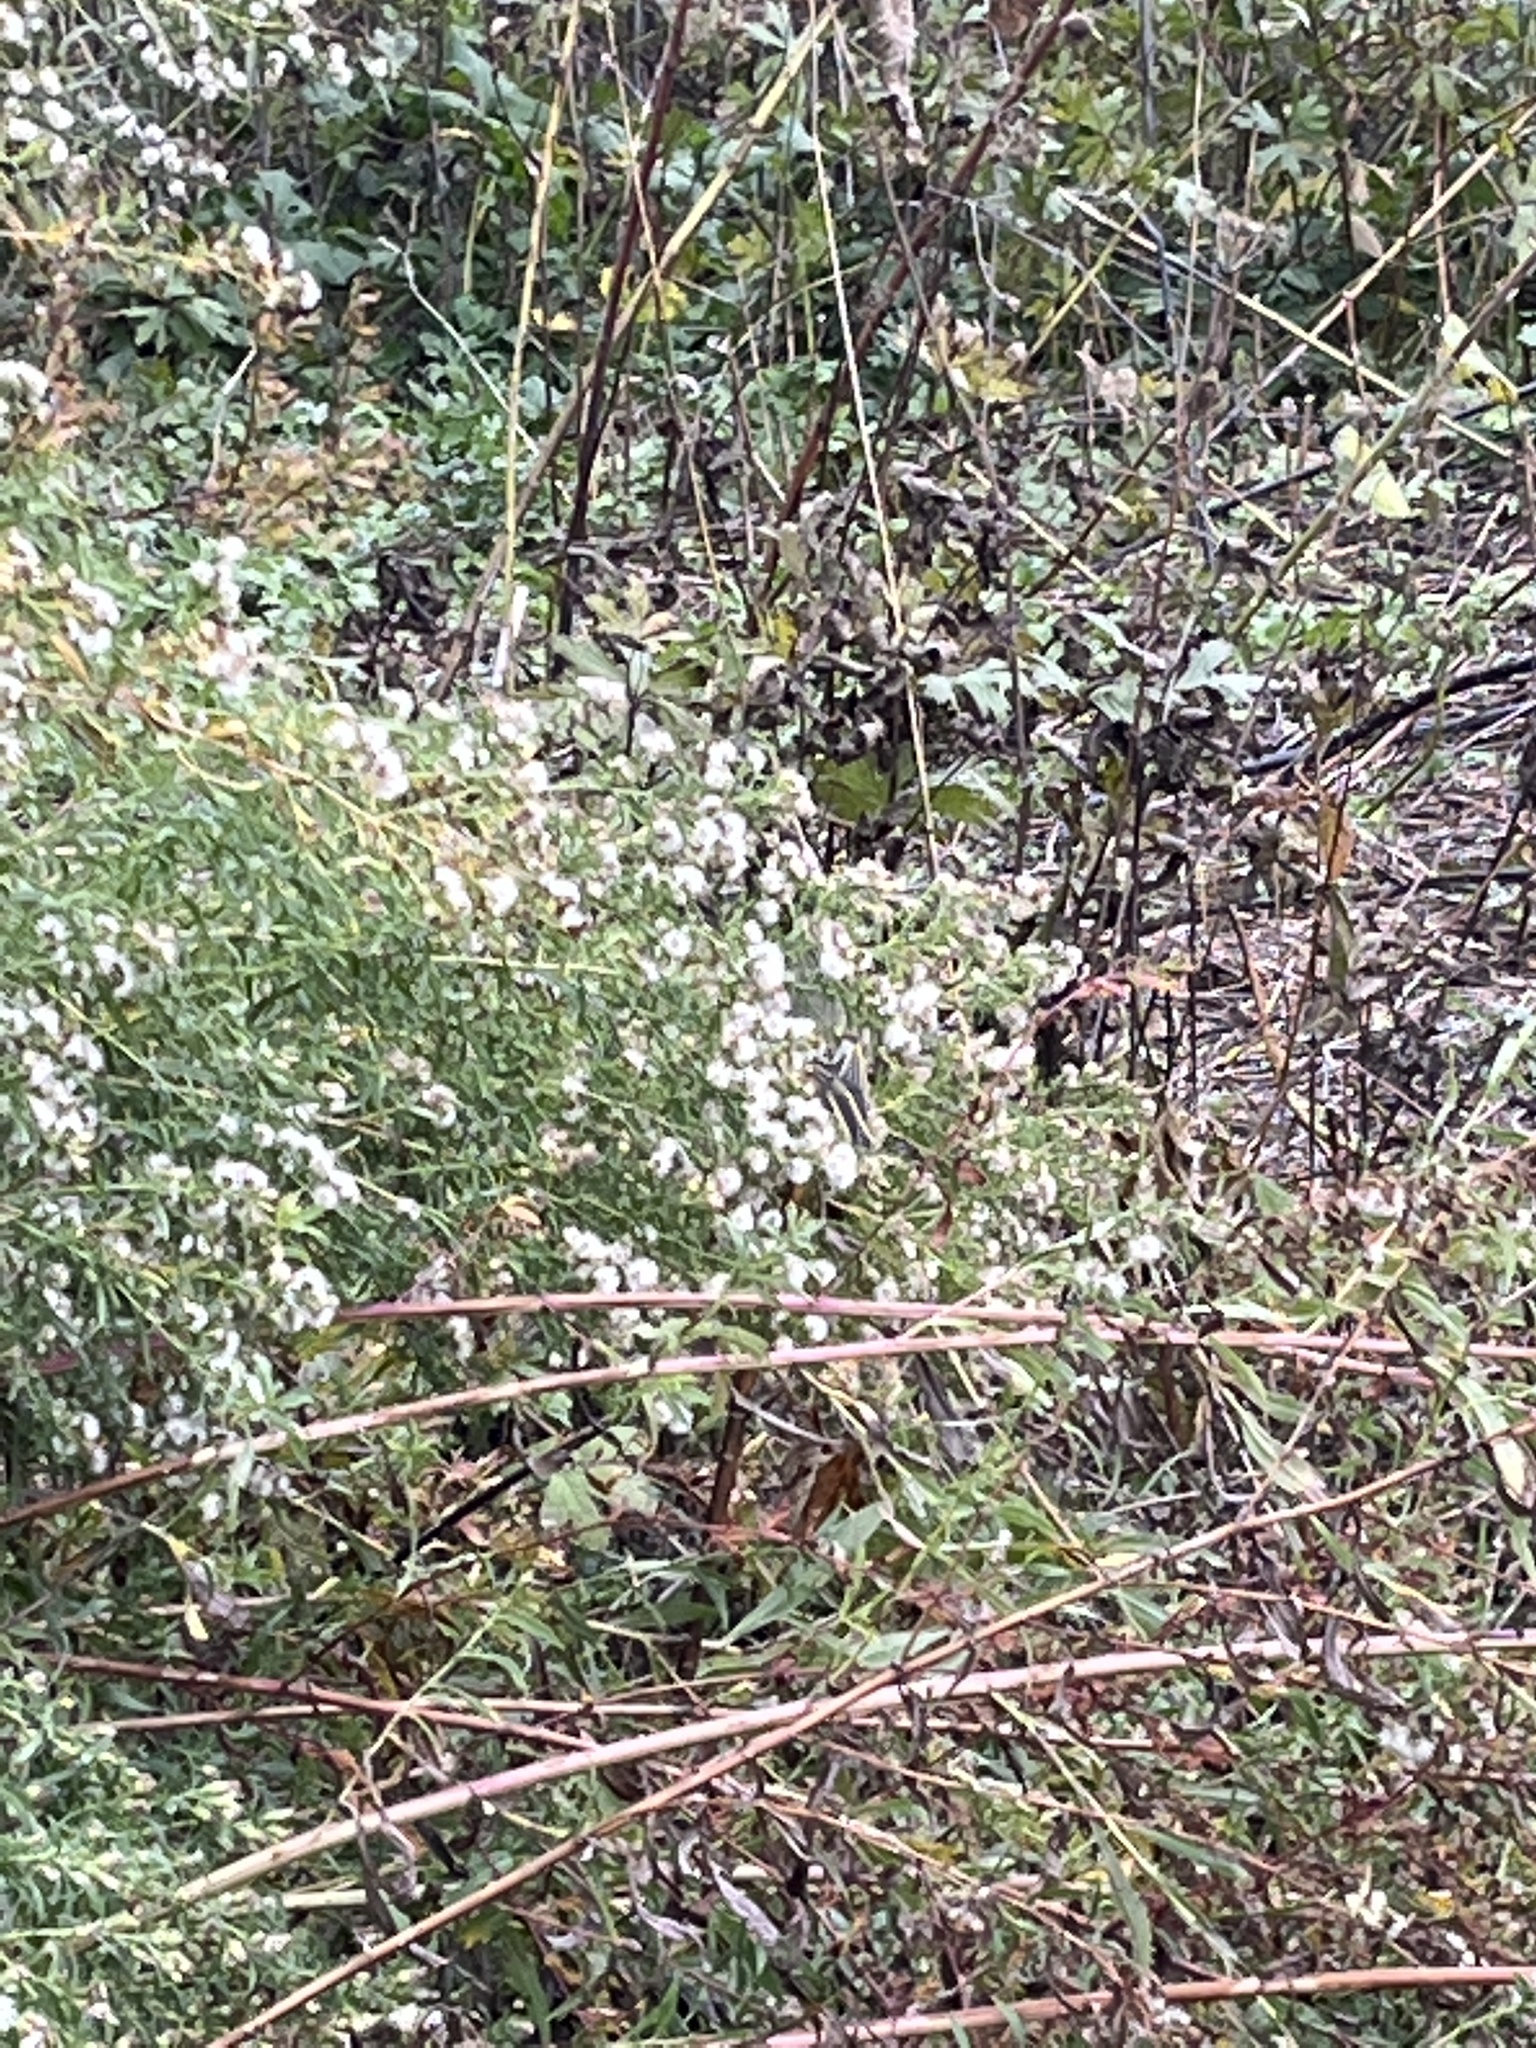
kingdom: Animalia
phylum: Chordata
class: Aves
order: Passeriformes
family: Regulidae
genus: Regulus
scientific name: Regulus calendula
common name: Ruby-crowned kinglet
